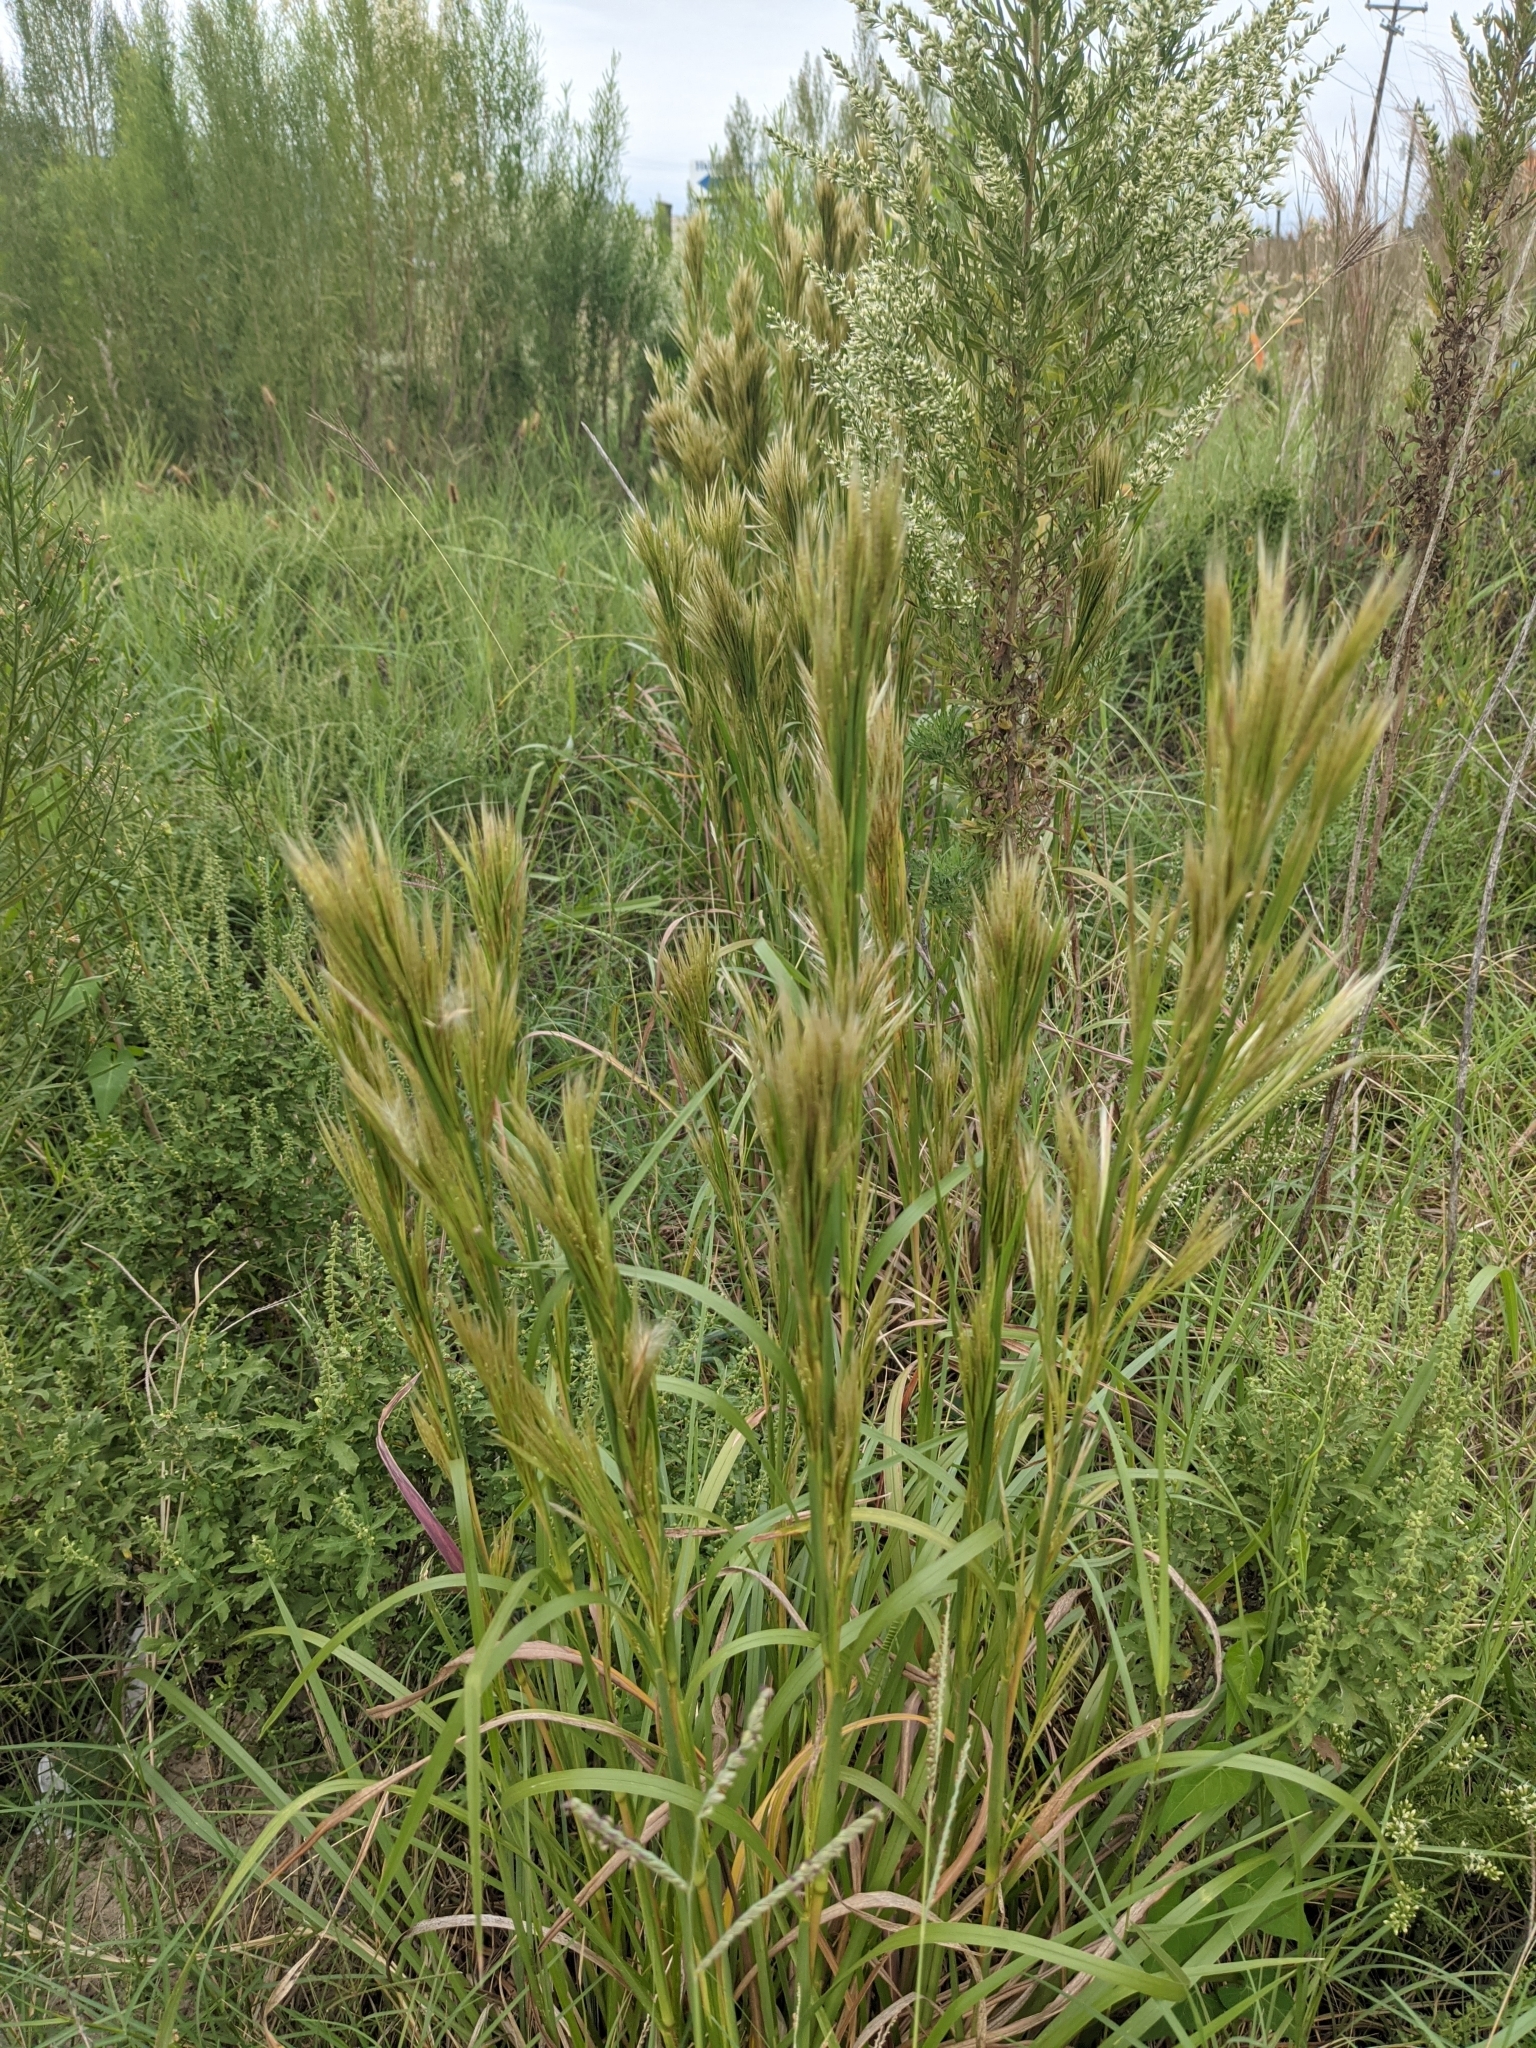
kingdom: Plantae
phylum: Tracheophyta
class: Liliopsida
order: Poales
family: Poaceae
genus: Andropogon
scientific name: Andropogon tenuispatheus
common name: Bushy bluestem
